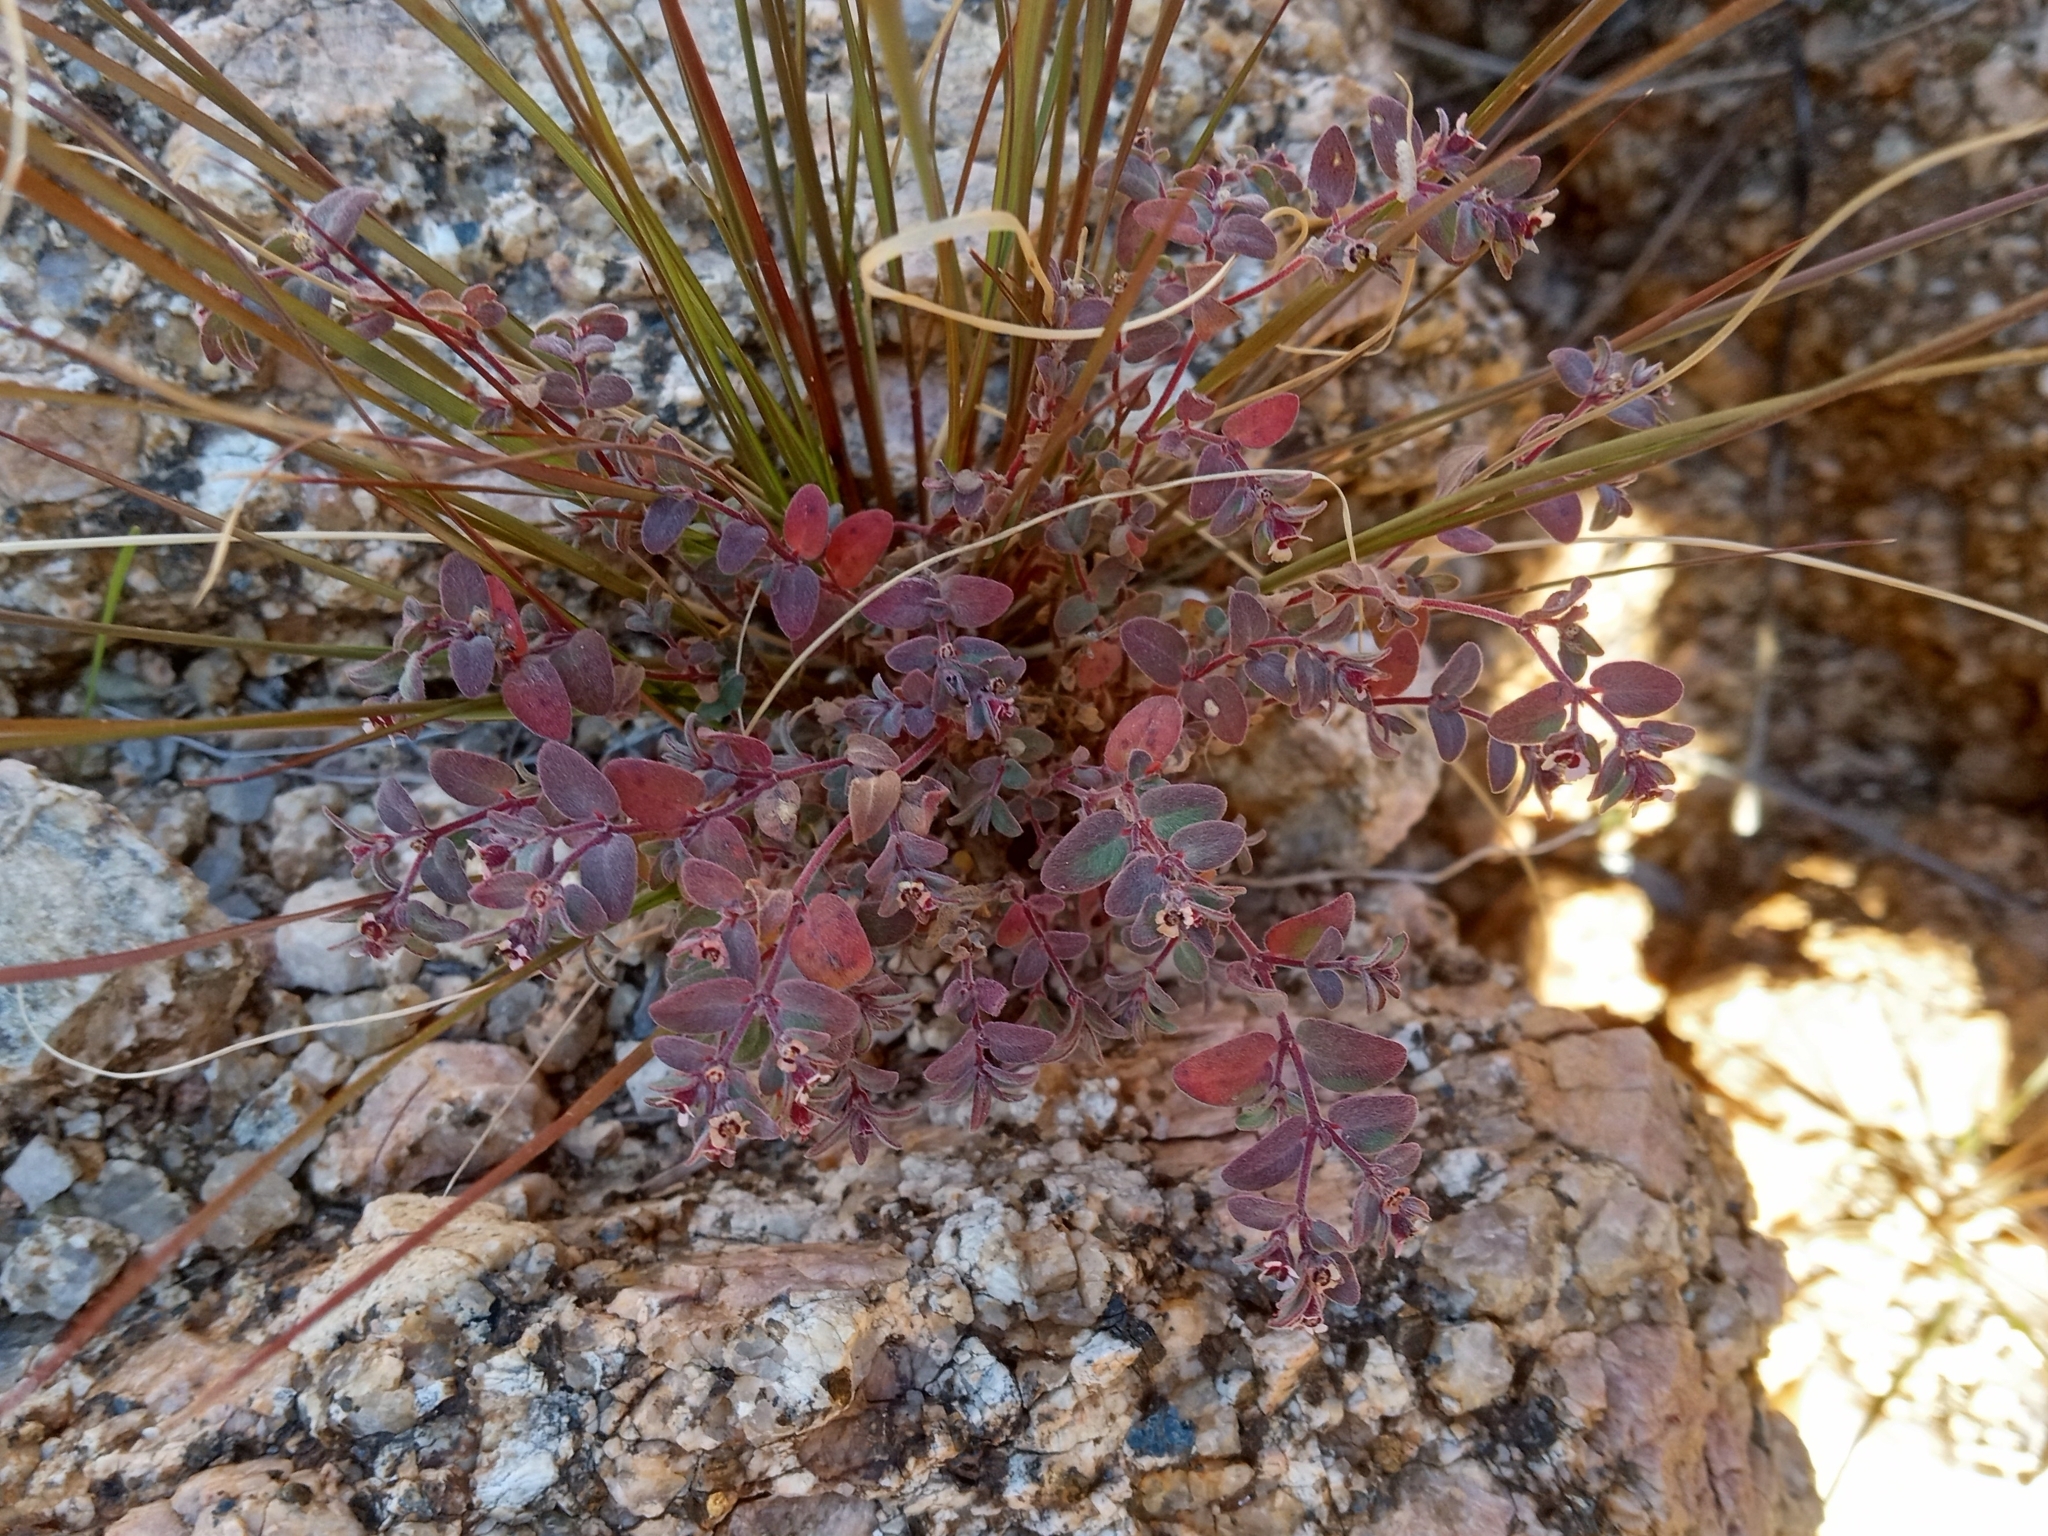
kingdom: Plantae
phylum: Tracheophyta
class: Magnoliopsida
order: Malpighiales
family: Euphorbiaceae
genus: Euphorbia
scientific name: Euphorbia melanadenia
